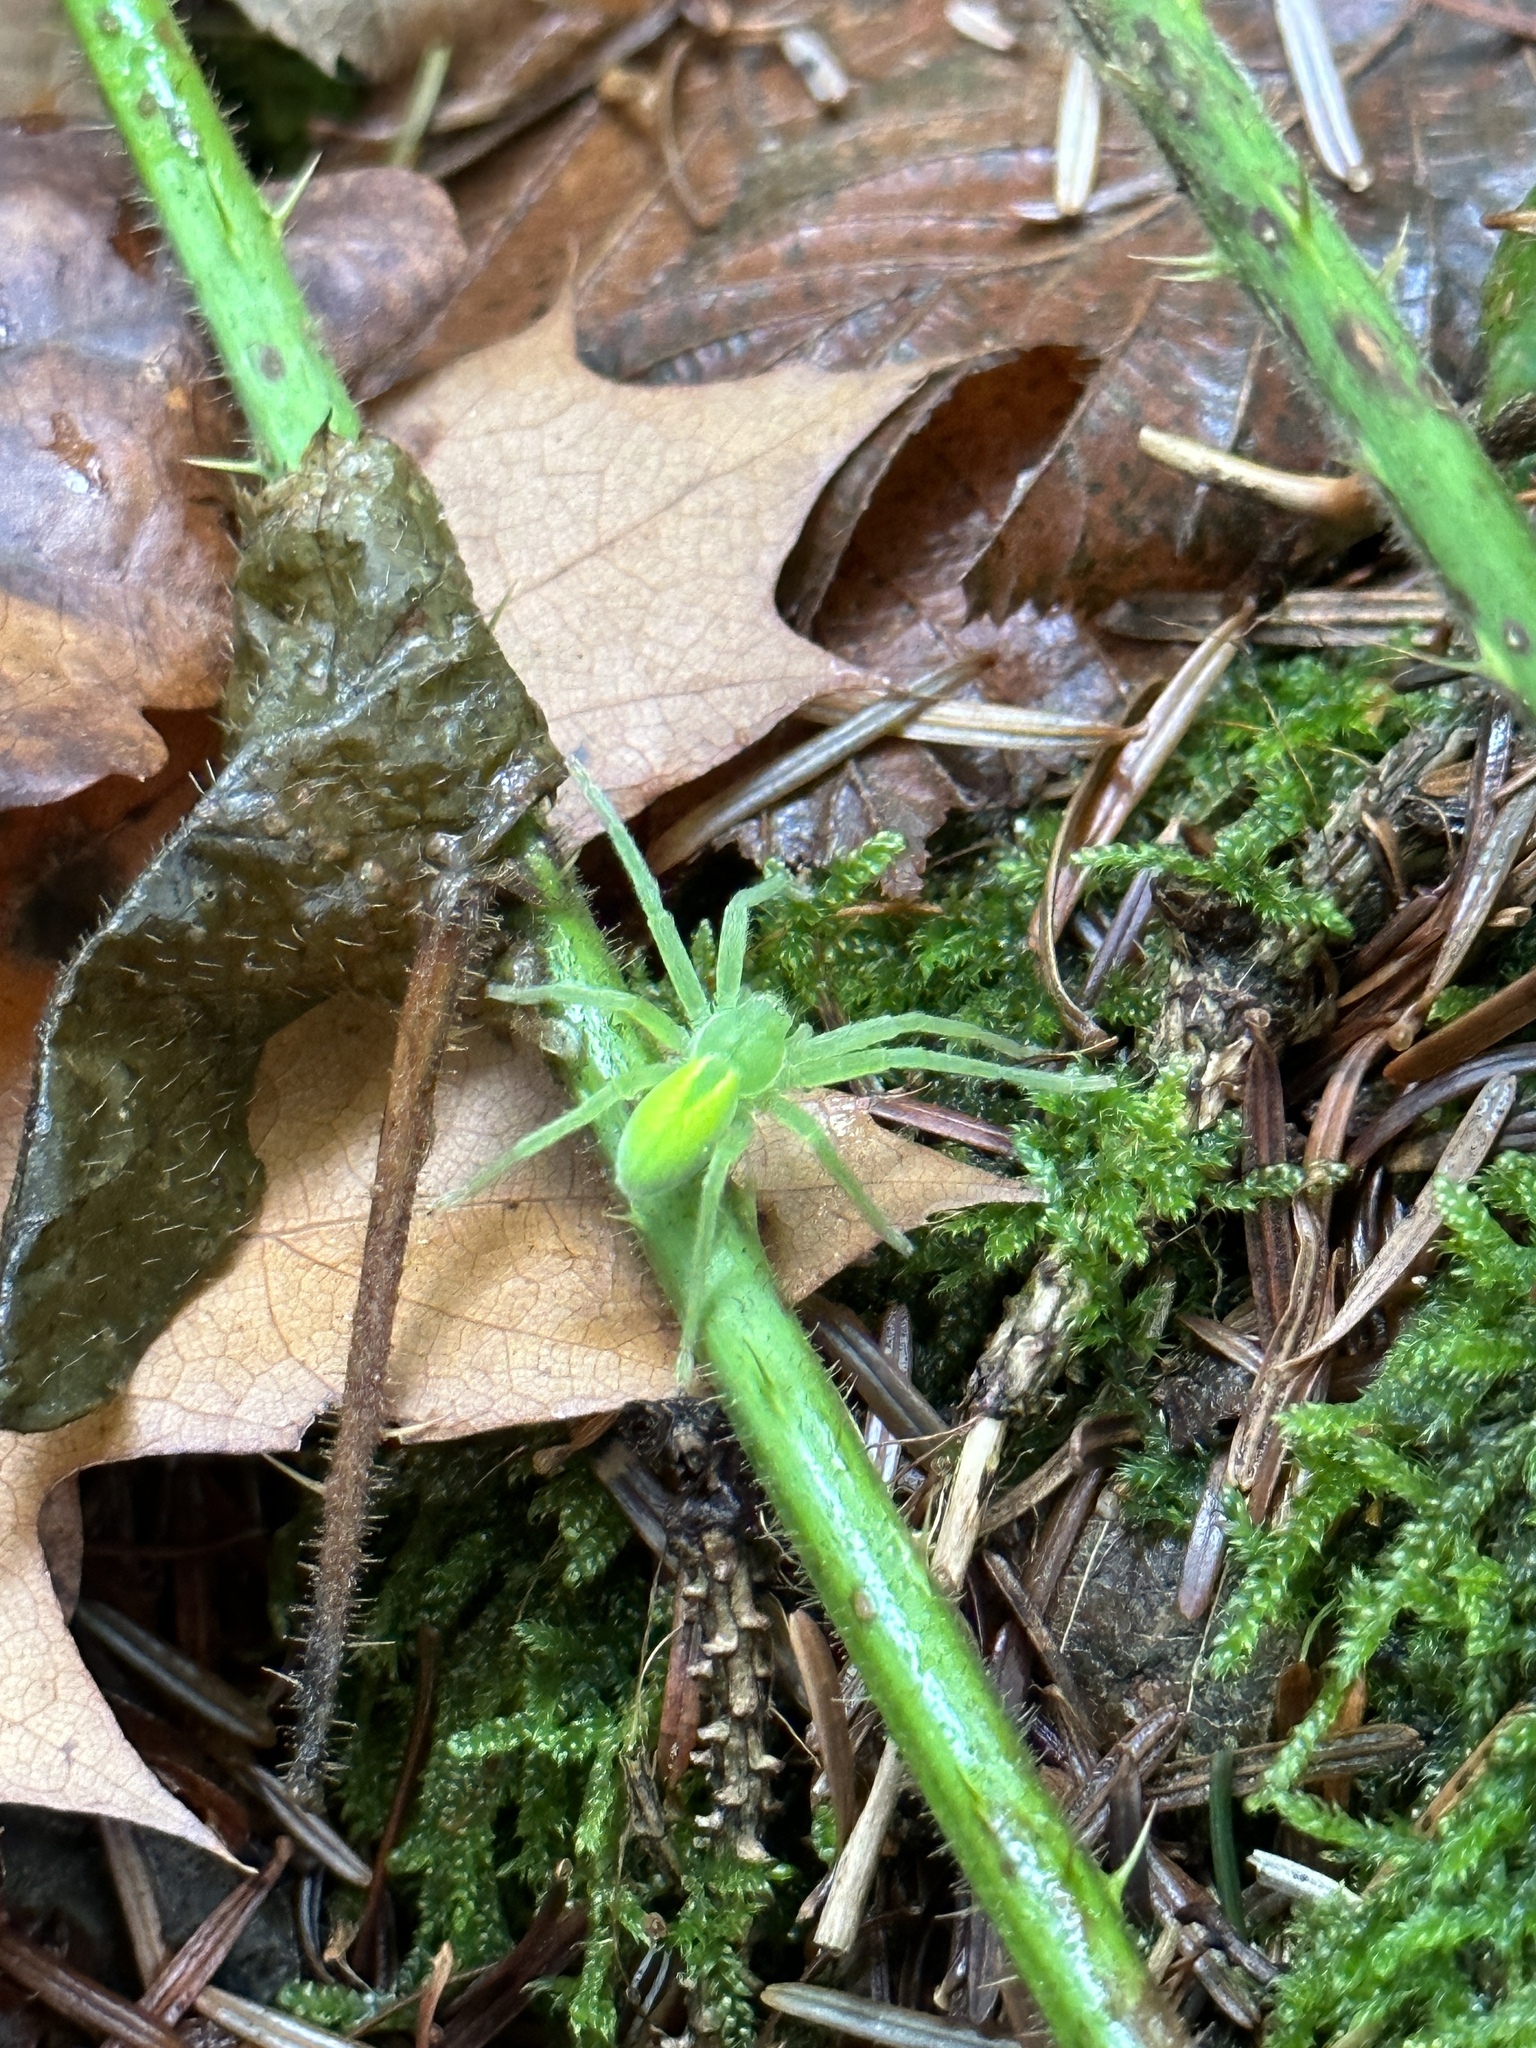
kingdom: Animalia
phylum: Arthropoda
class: Arachnida
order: Araneae
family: Sparassidae
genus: Micrommata
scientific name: Micrommata virescens
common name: Green spider
